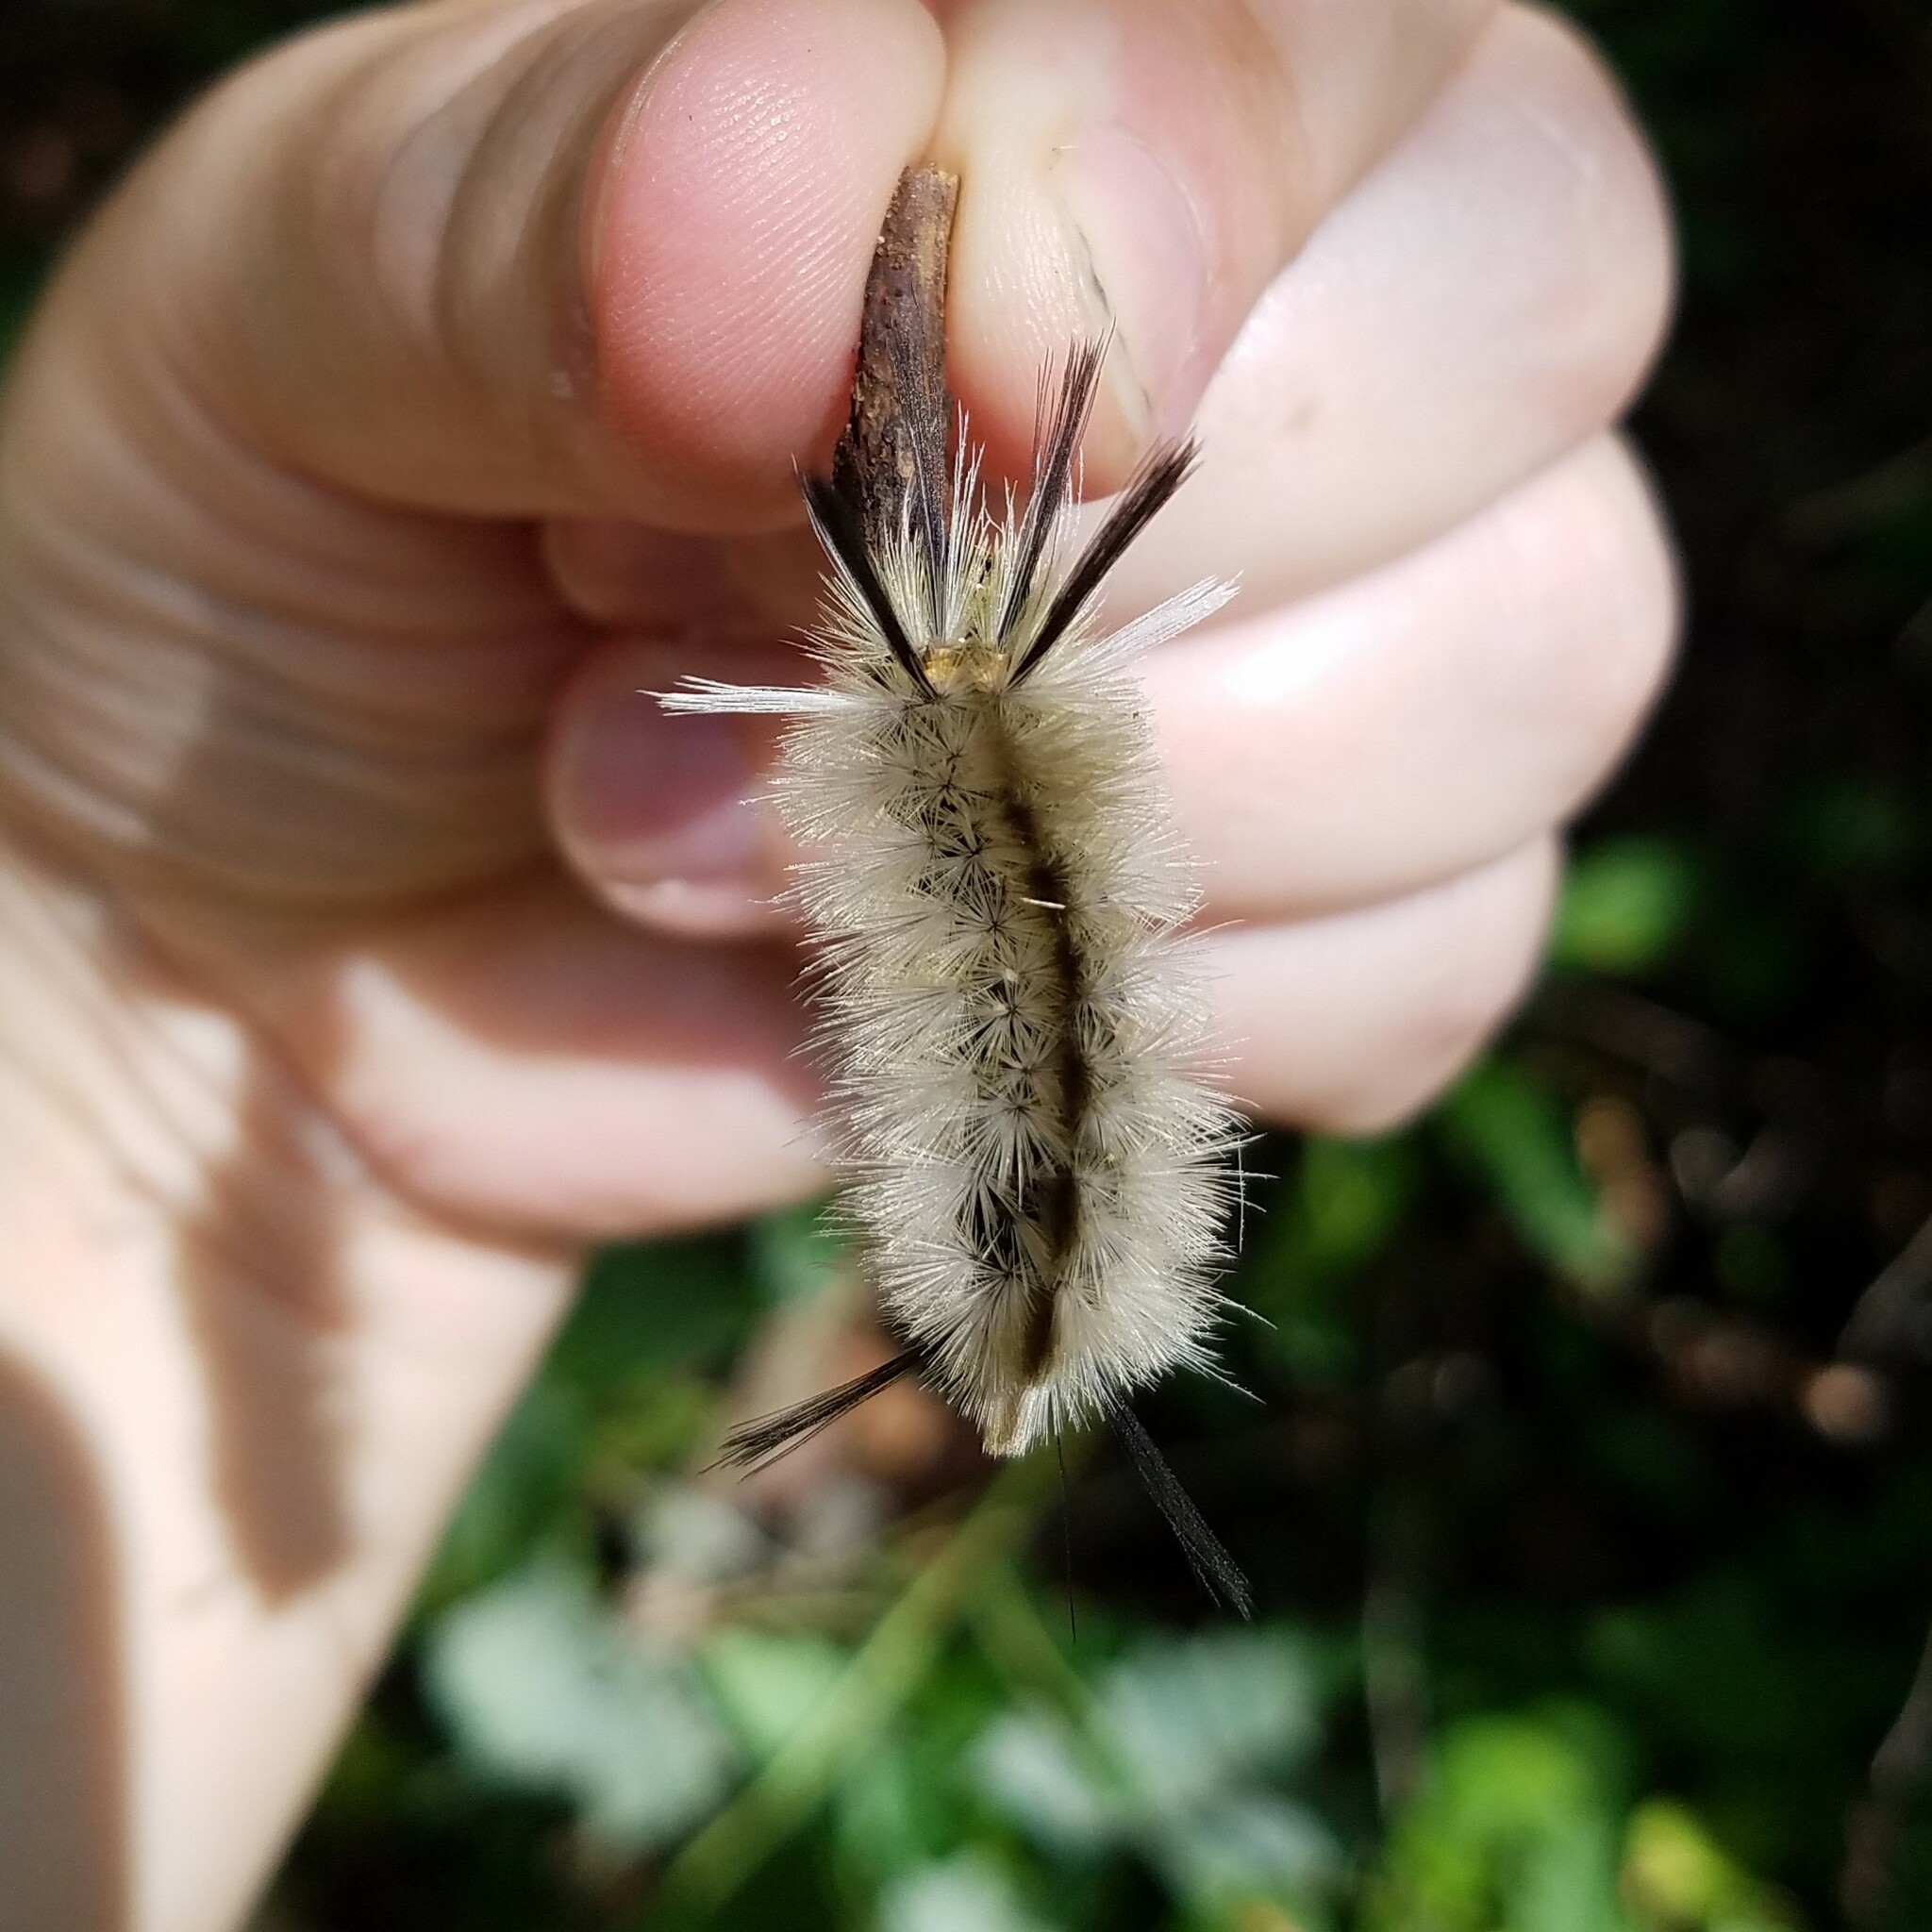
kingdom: Animalia
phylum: Arthropoda
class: Insecta
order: Lepidoptera
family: Erebidae
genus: Halysidota
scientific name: Halysidota tessellaris
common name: Banded tussock moth
